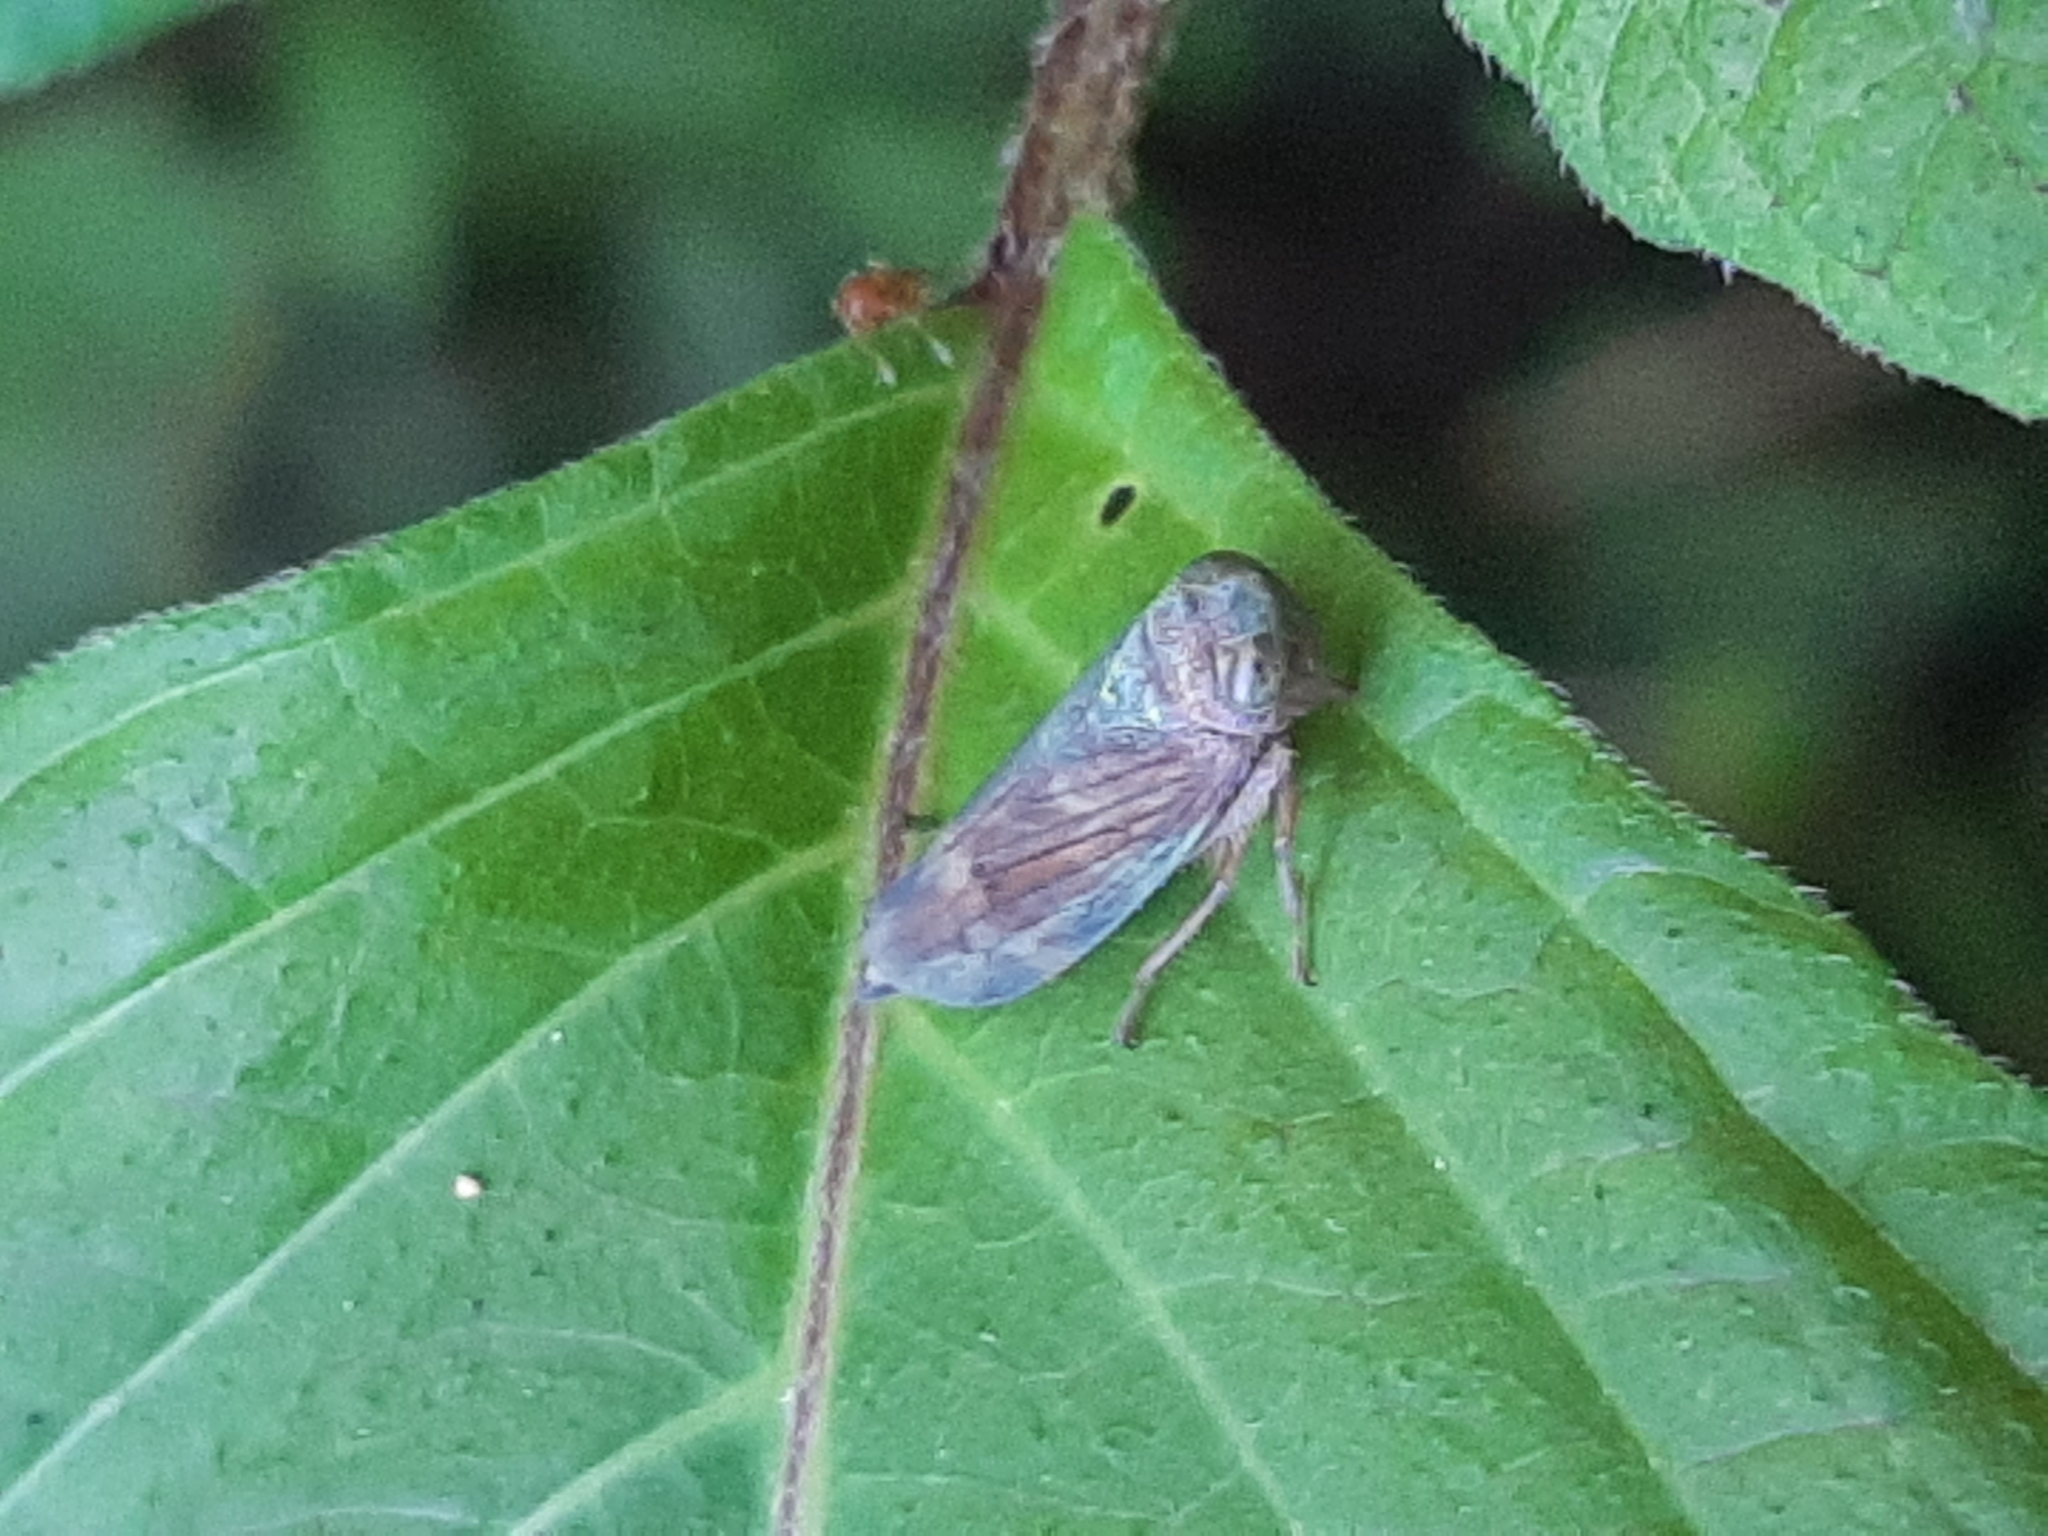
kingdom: Animalia
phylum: Arthropoda
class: Insecta
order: Hemiptera
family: Cicadellidae
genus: Jikradia
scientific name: Jikradia olitoria
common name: Coppery leafhopper
